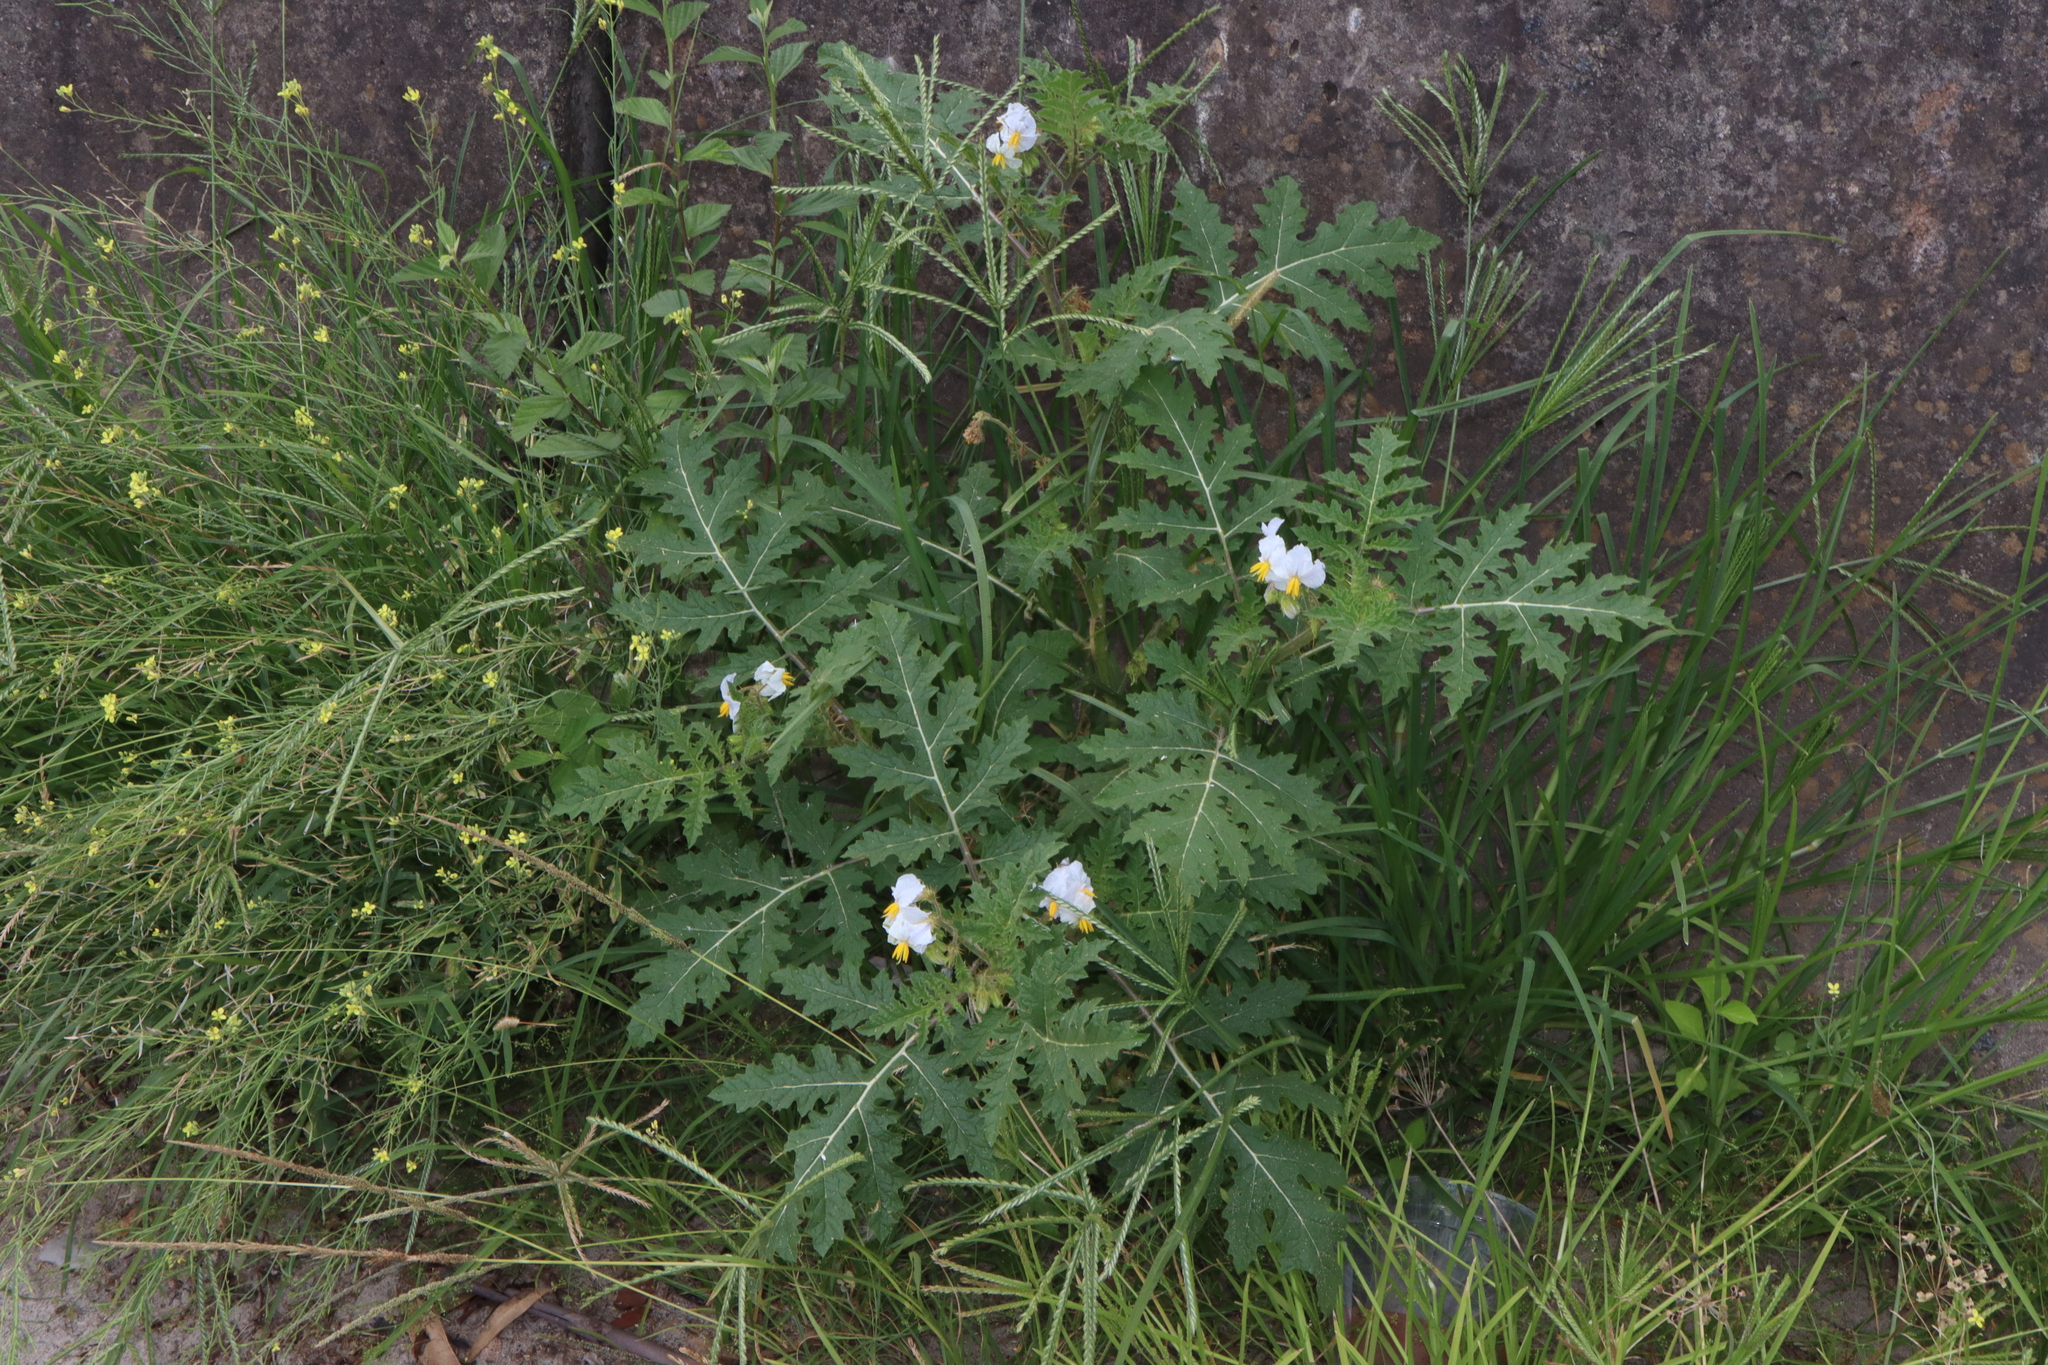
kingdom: Plantae
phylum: Tracheophyta
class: Magnoliopsida
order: Solanales
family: Solanaceae
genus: Solanum
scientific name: Solanum sisymbriifolium
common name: Red buffalo-bur
